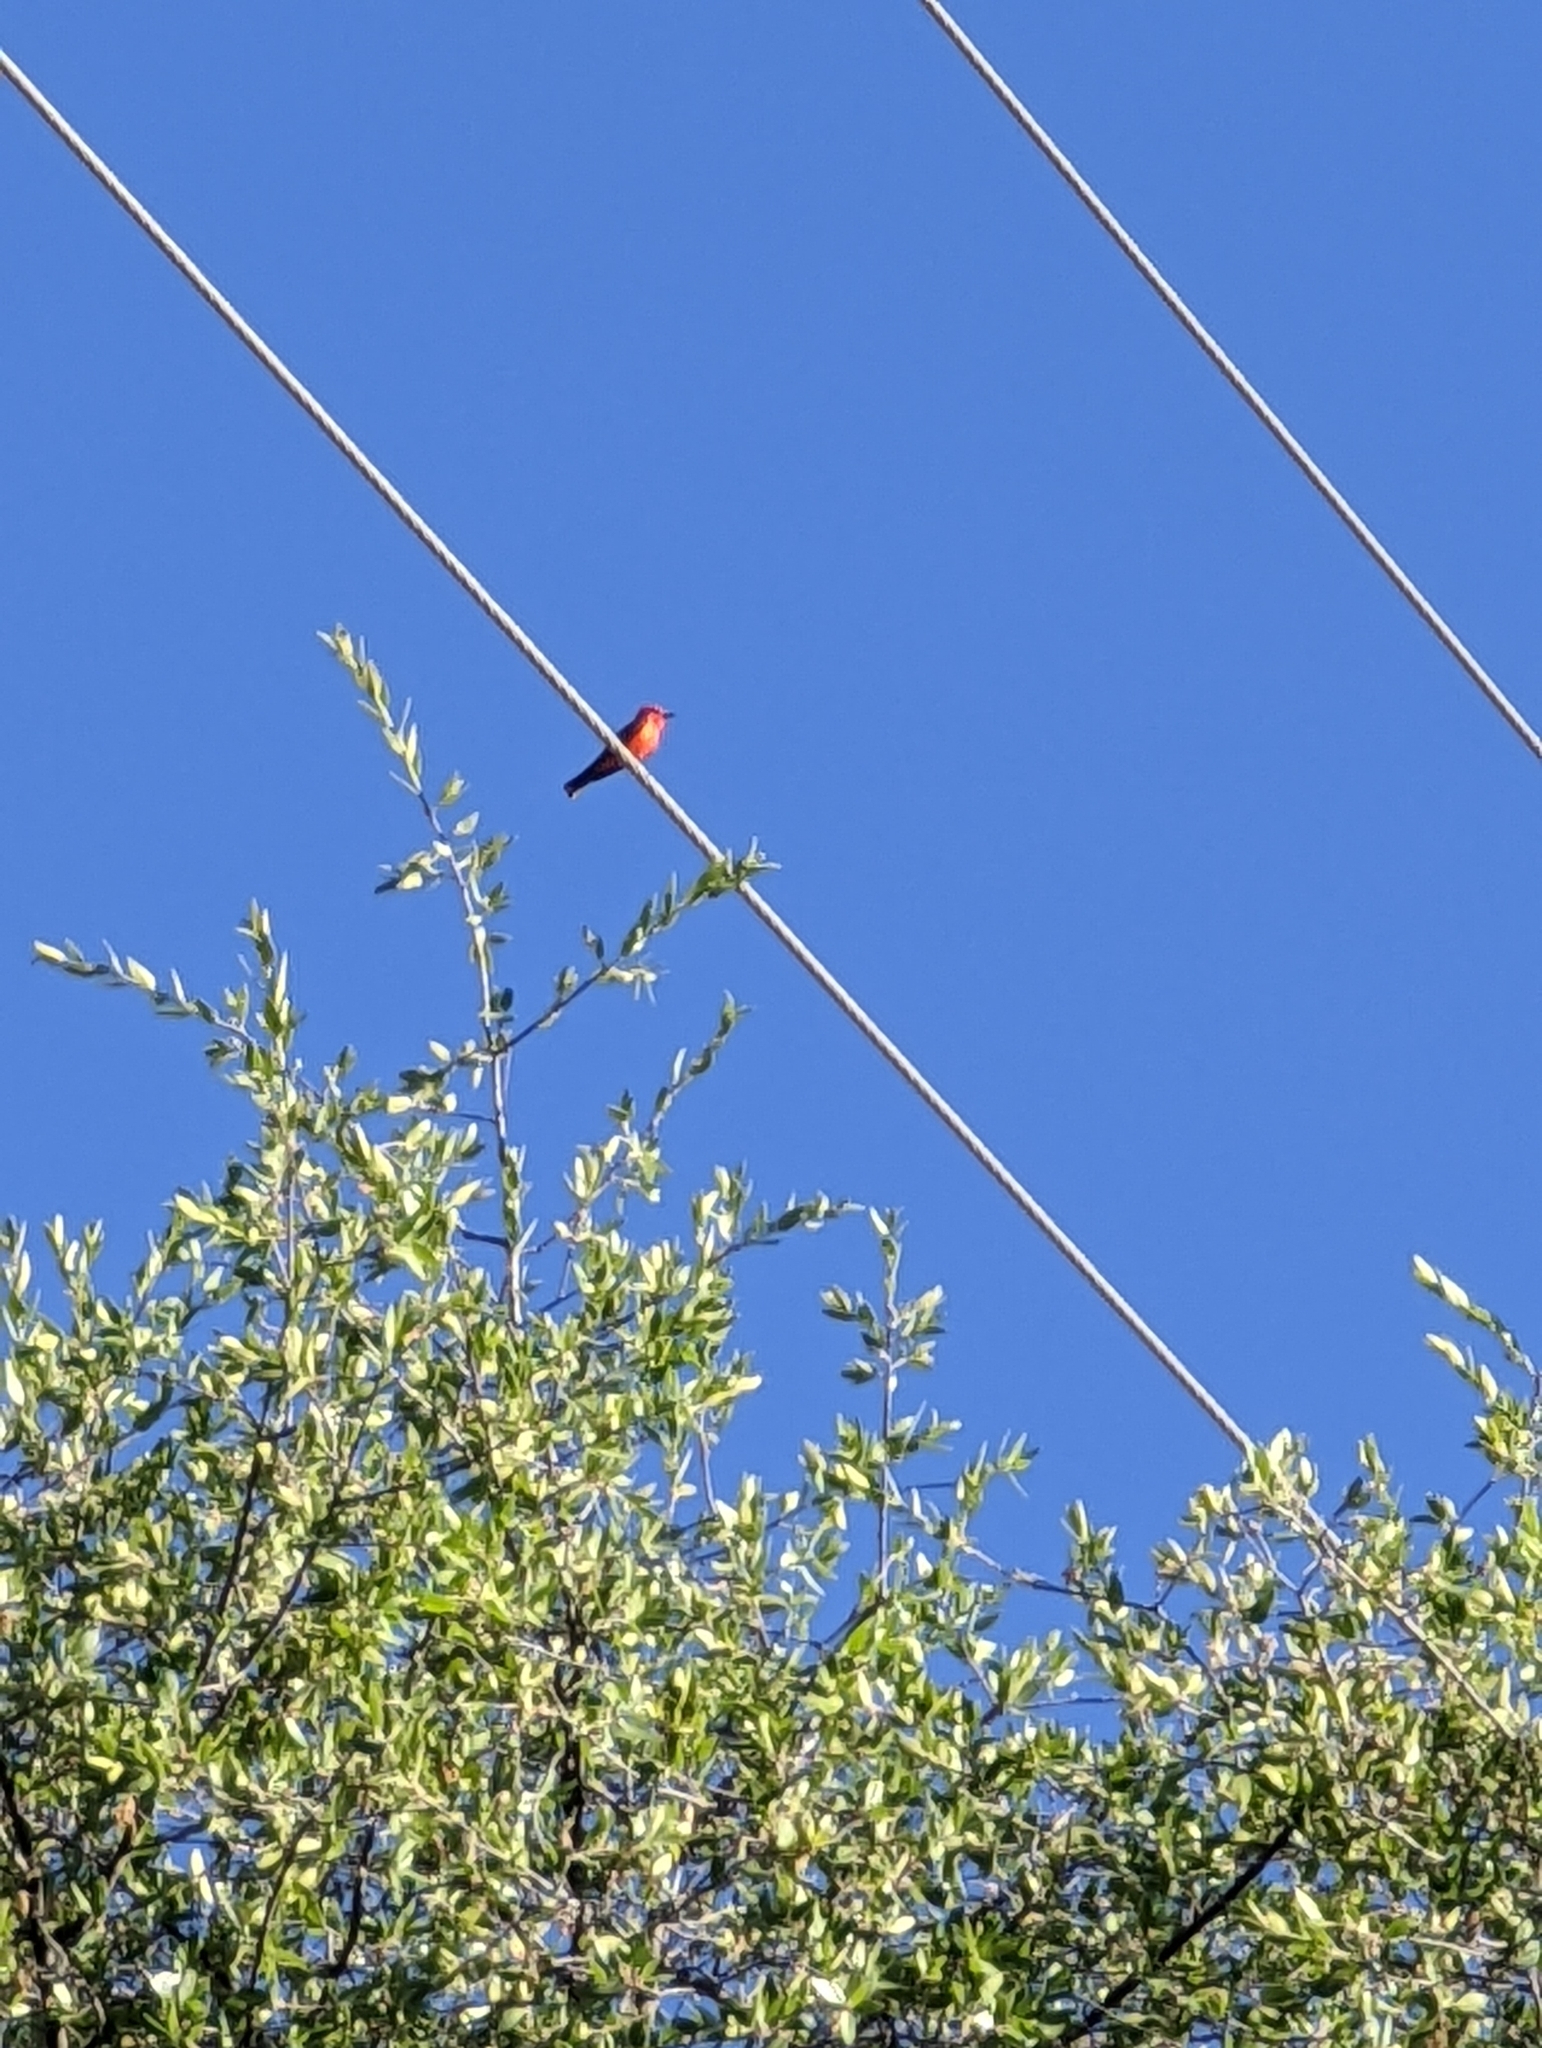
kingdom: Animalia
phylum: Chordata
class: Aves
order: Passeriformes
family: Tyrannidae
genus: Pyrocephalus
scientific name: Pyrocephalus rubinus
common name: Vermilion flycatcher
